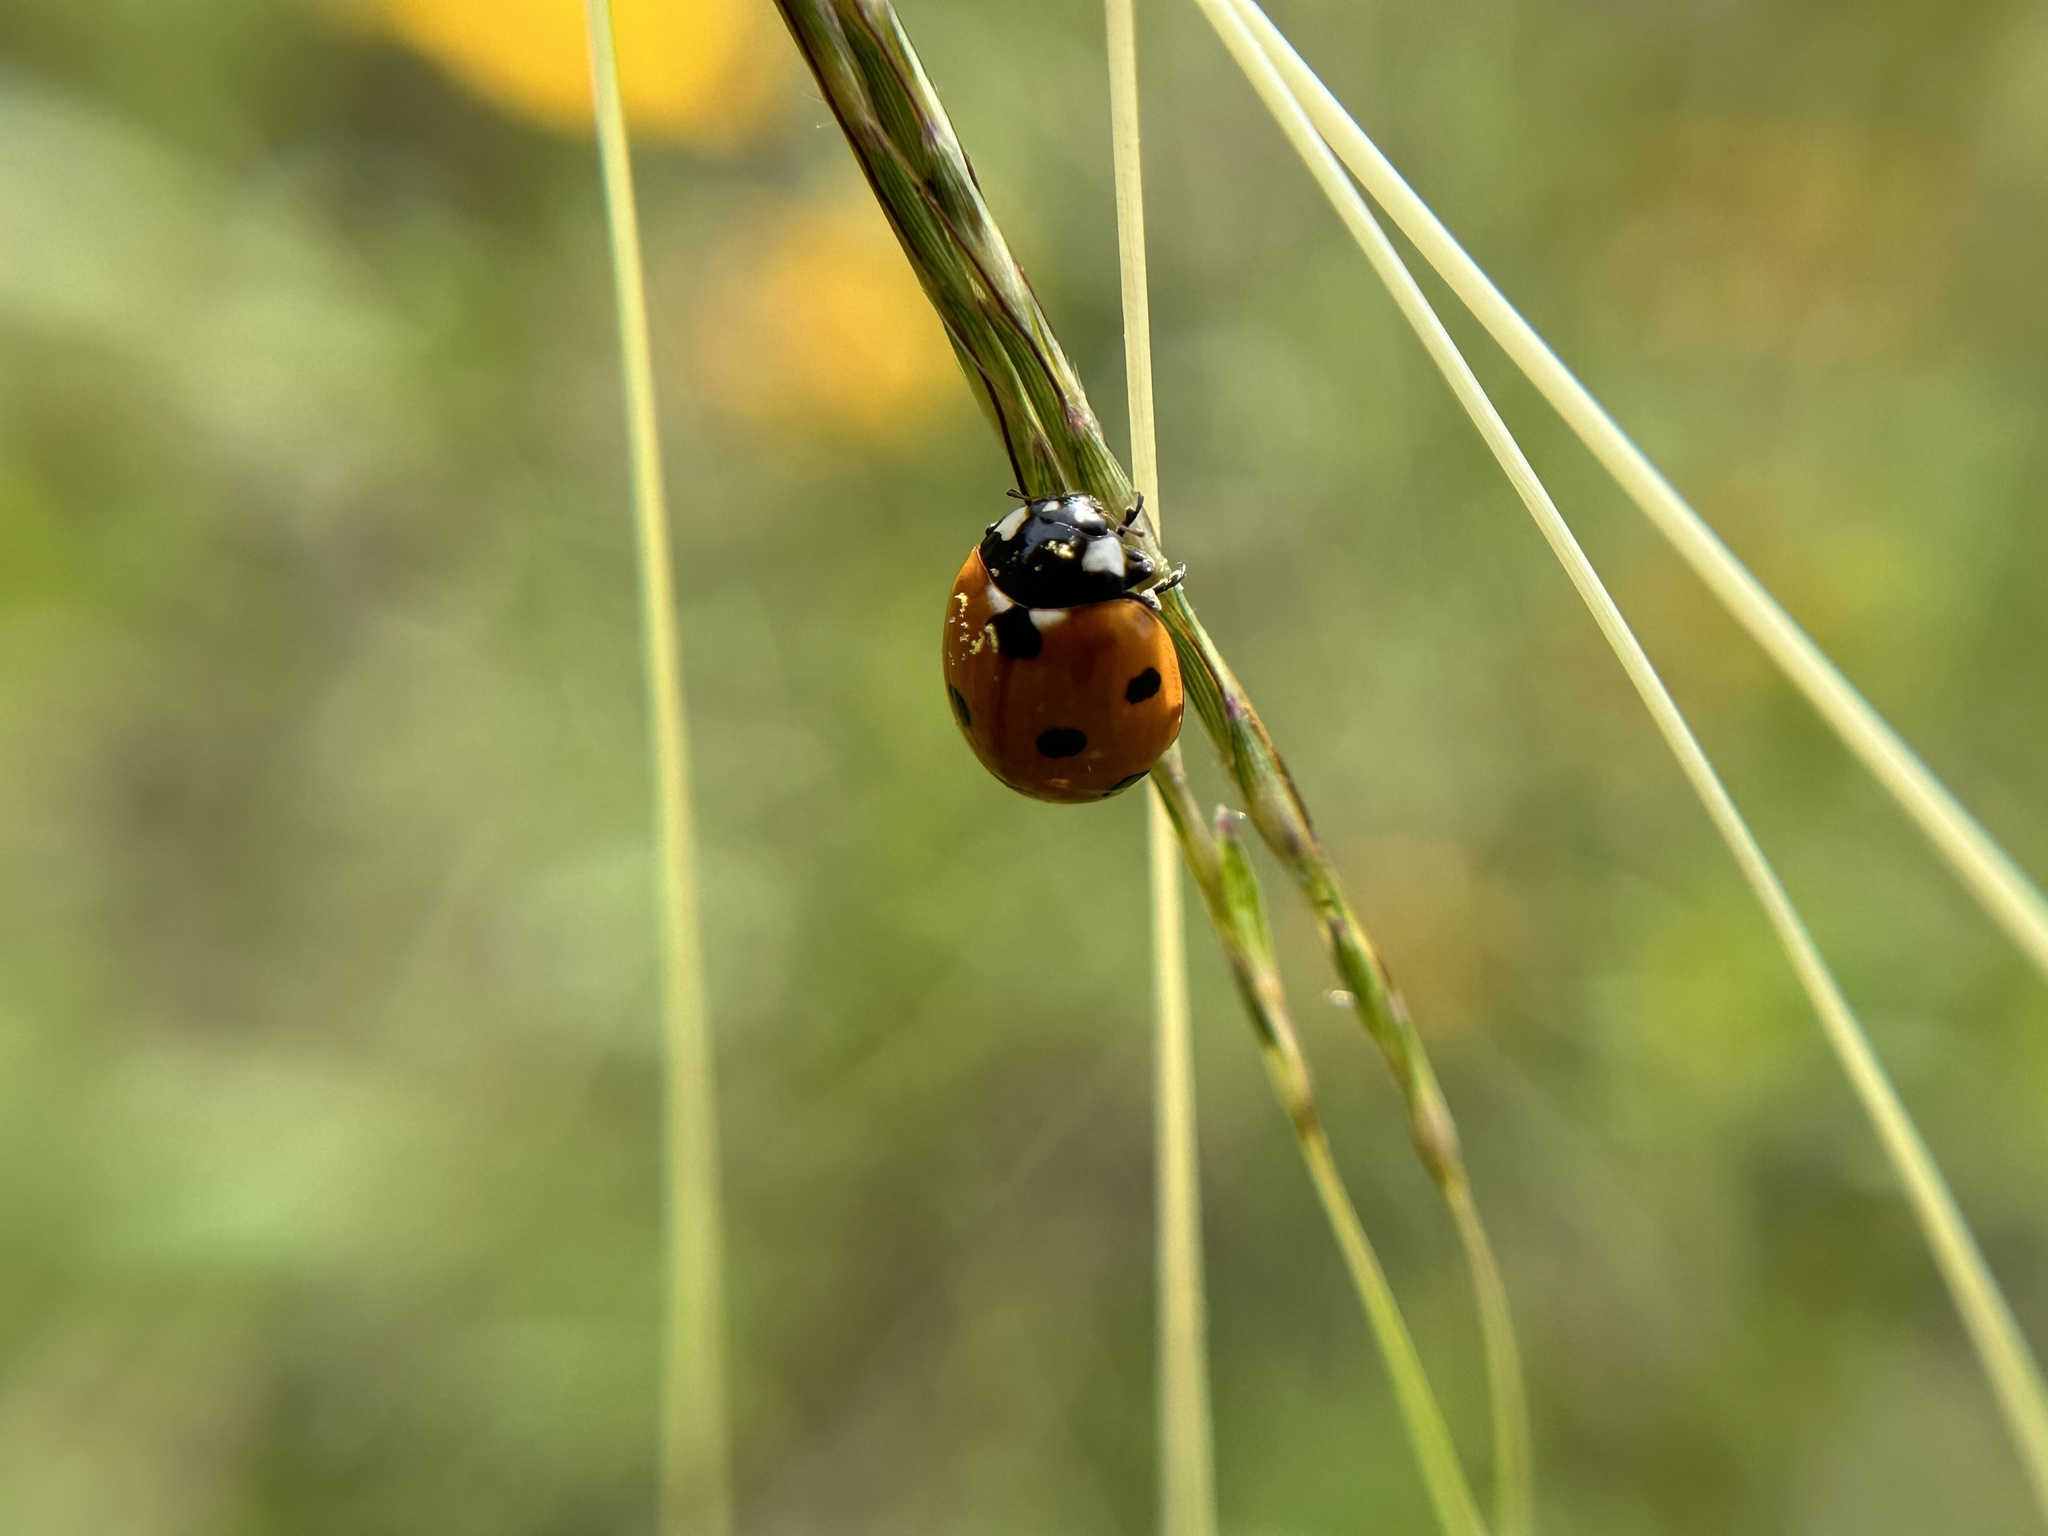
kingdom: Animalia
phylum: Arthropoda
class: Insecta
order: Coleoptera
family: Coccinellidae
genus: Coccinella
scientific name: Coccinella septempunctata
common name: Sevenspotted lady beetle
